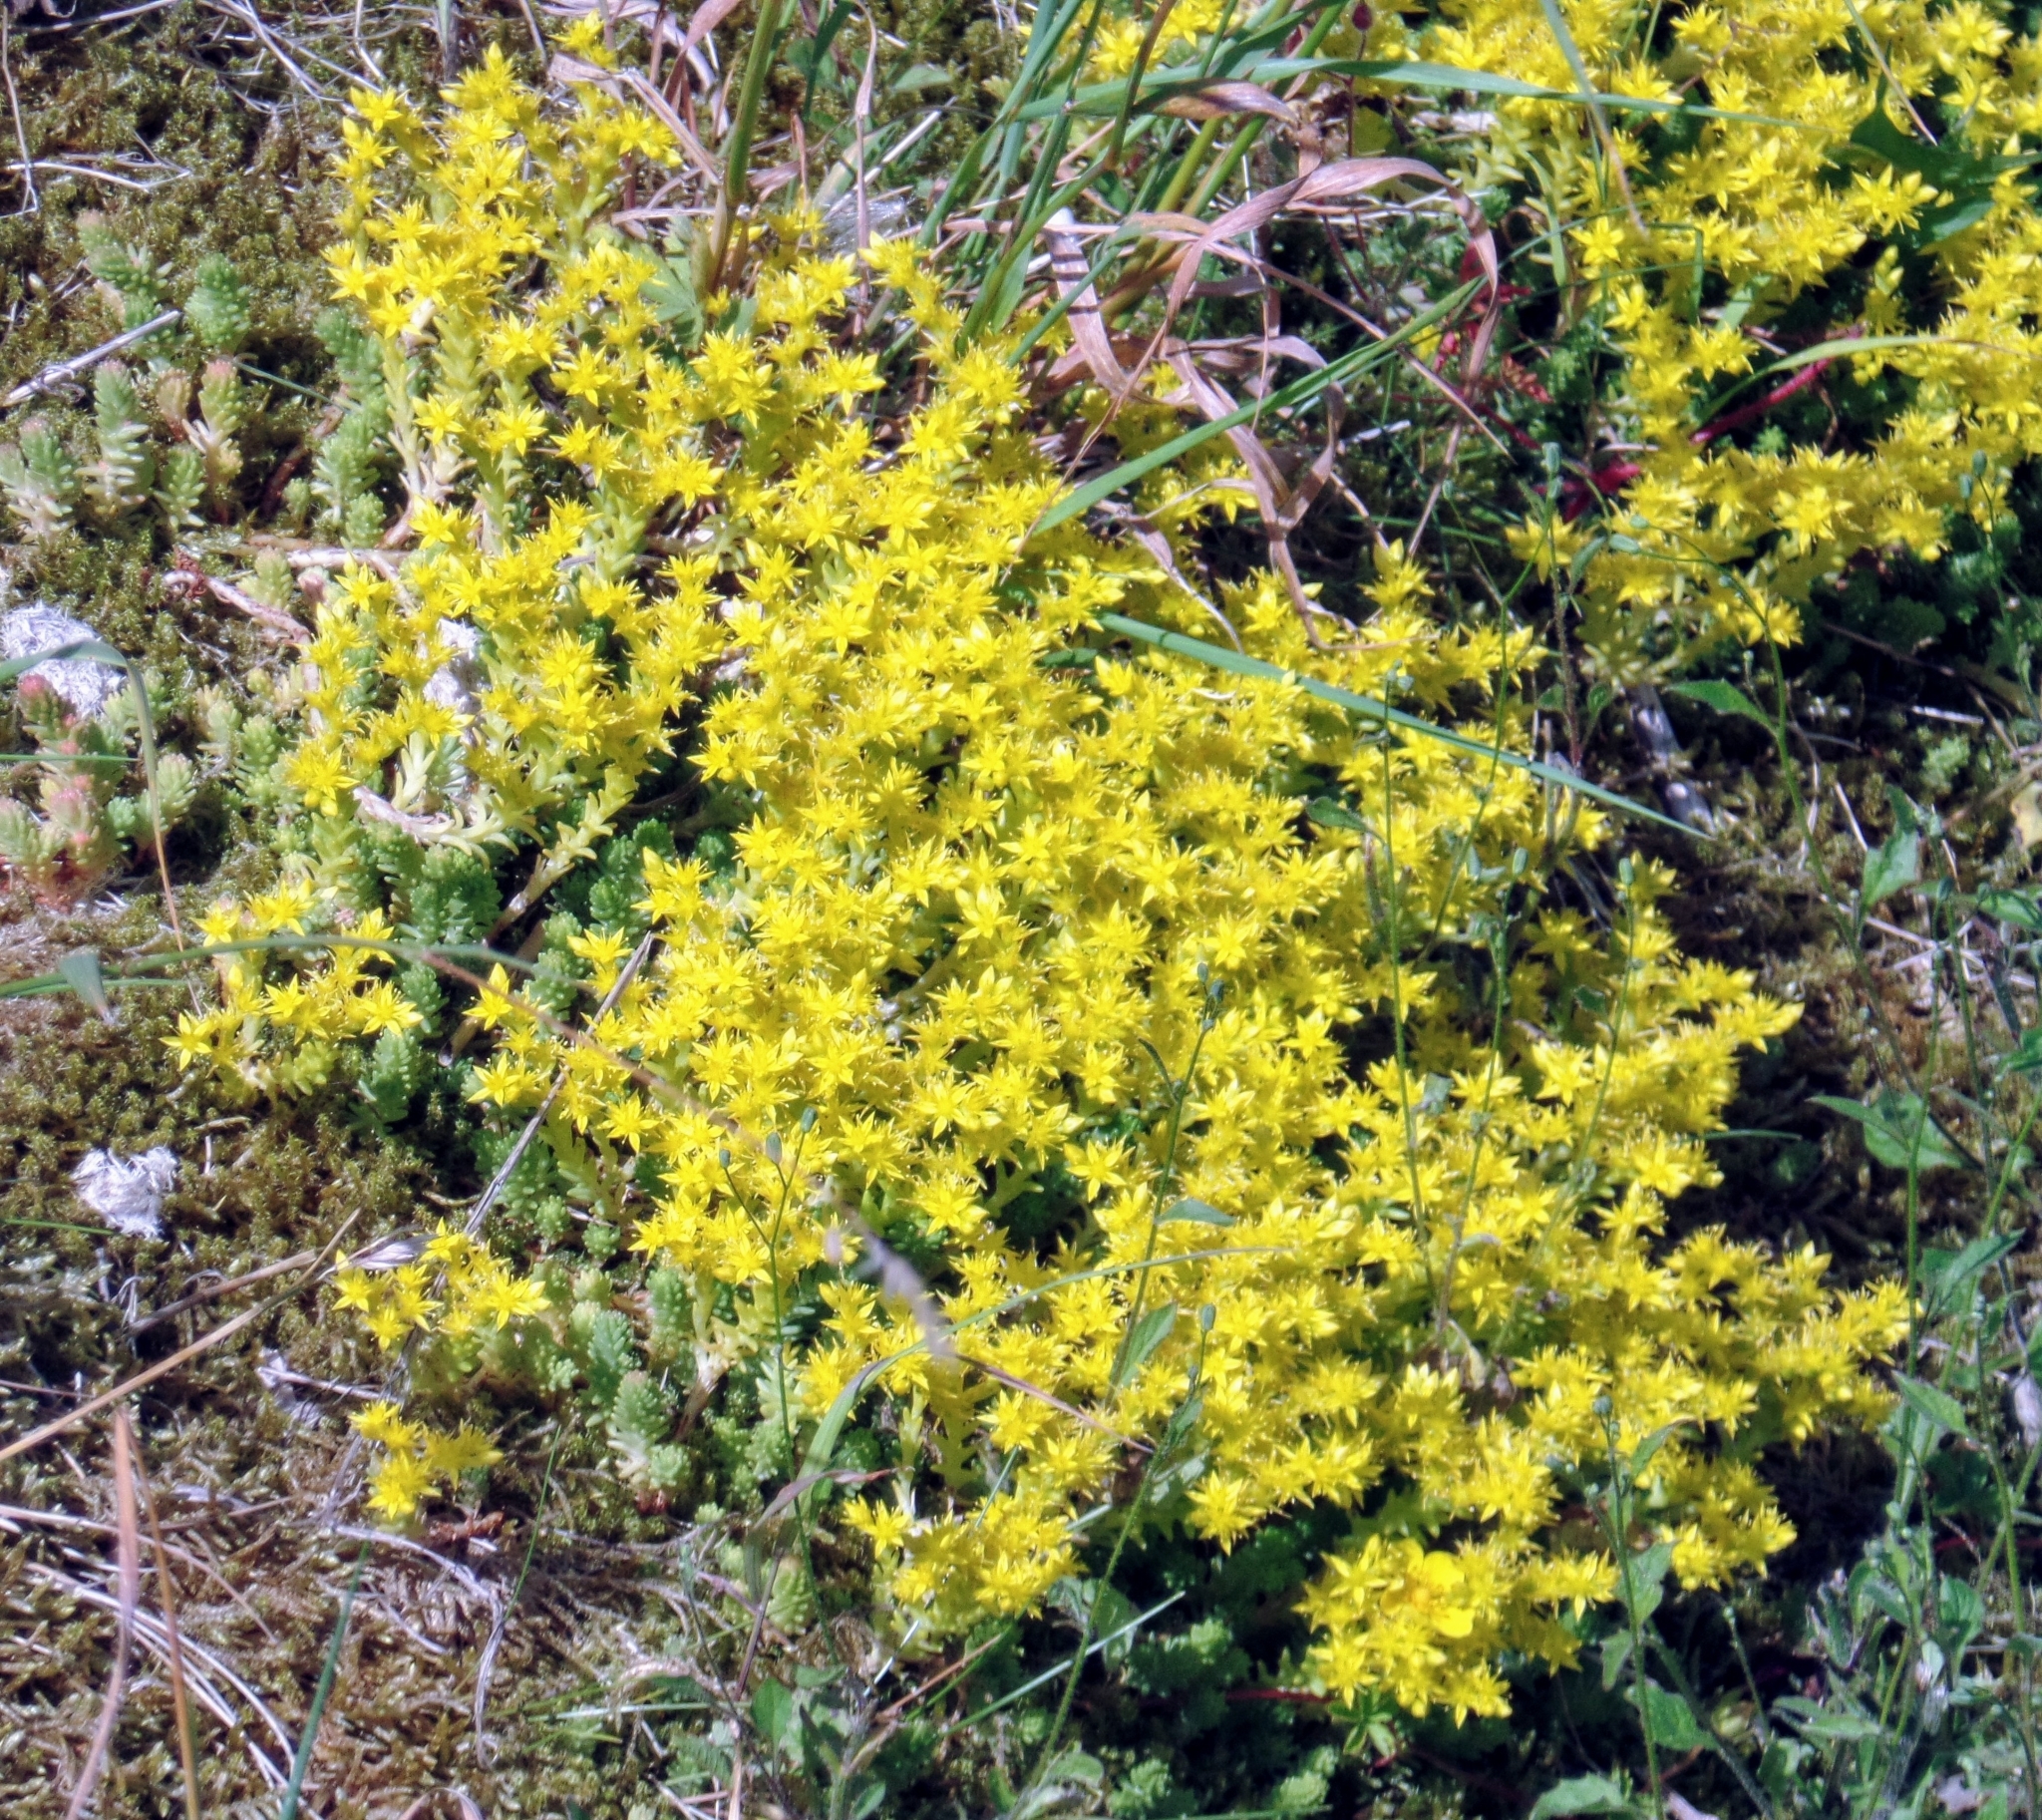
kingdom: Plantae
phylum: Tracheophyta
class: Magnoliopsida
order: Saxifragales
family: Crassulaceae
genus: Sedum
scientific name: Sedum sexangulare
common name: Tasteless stonecrop
